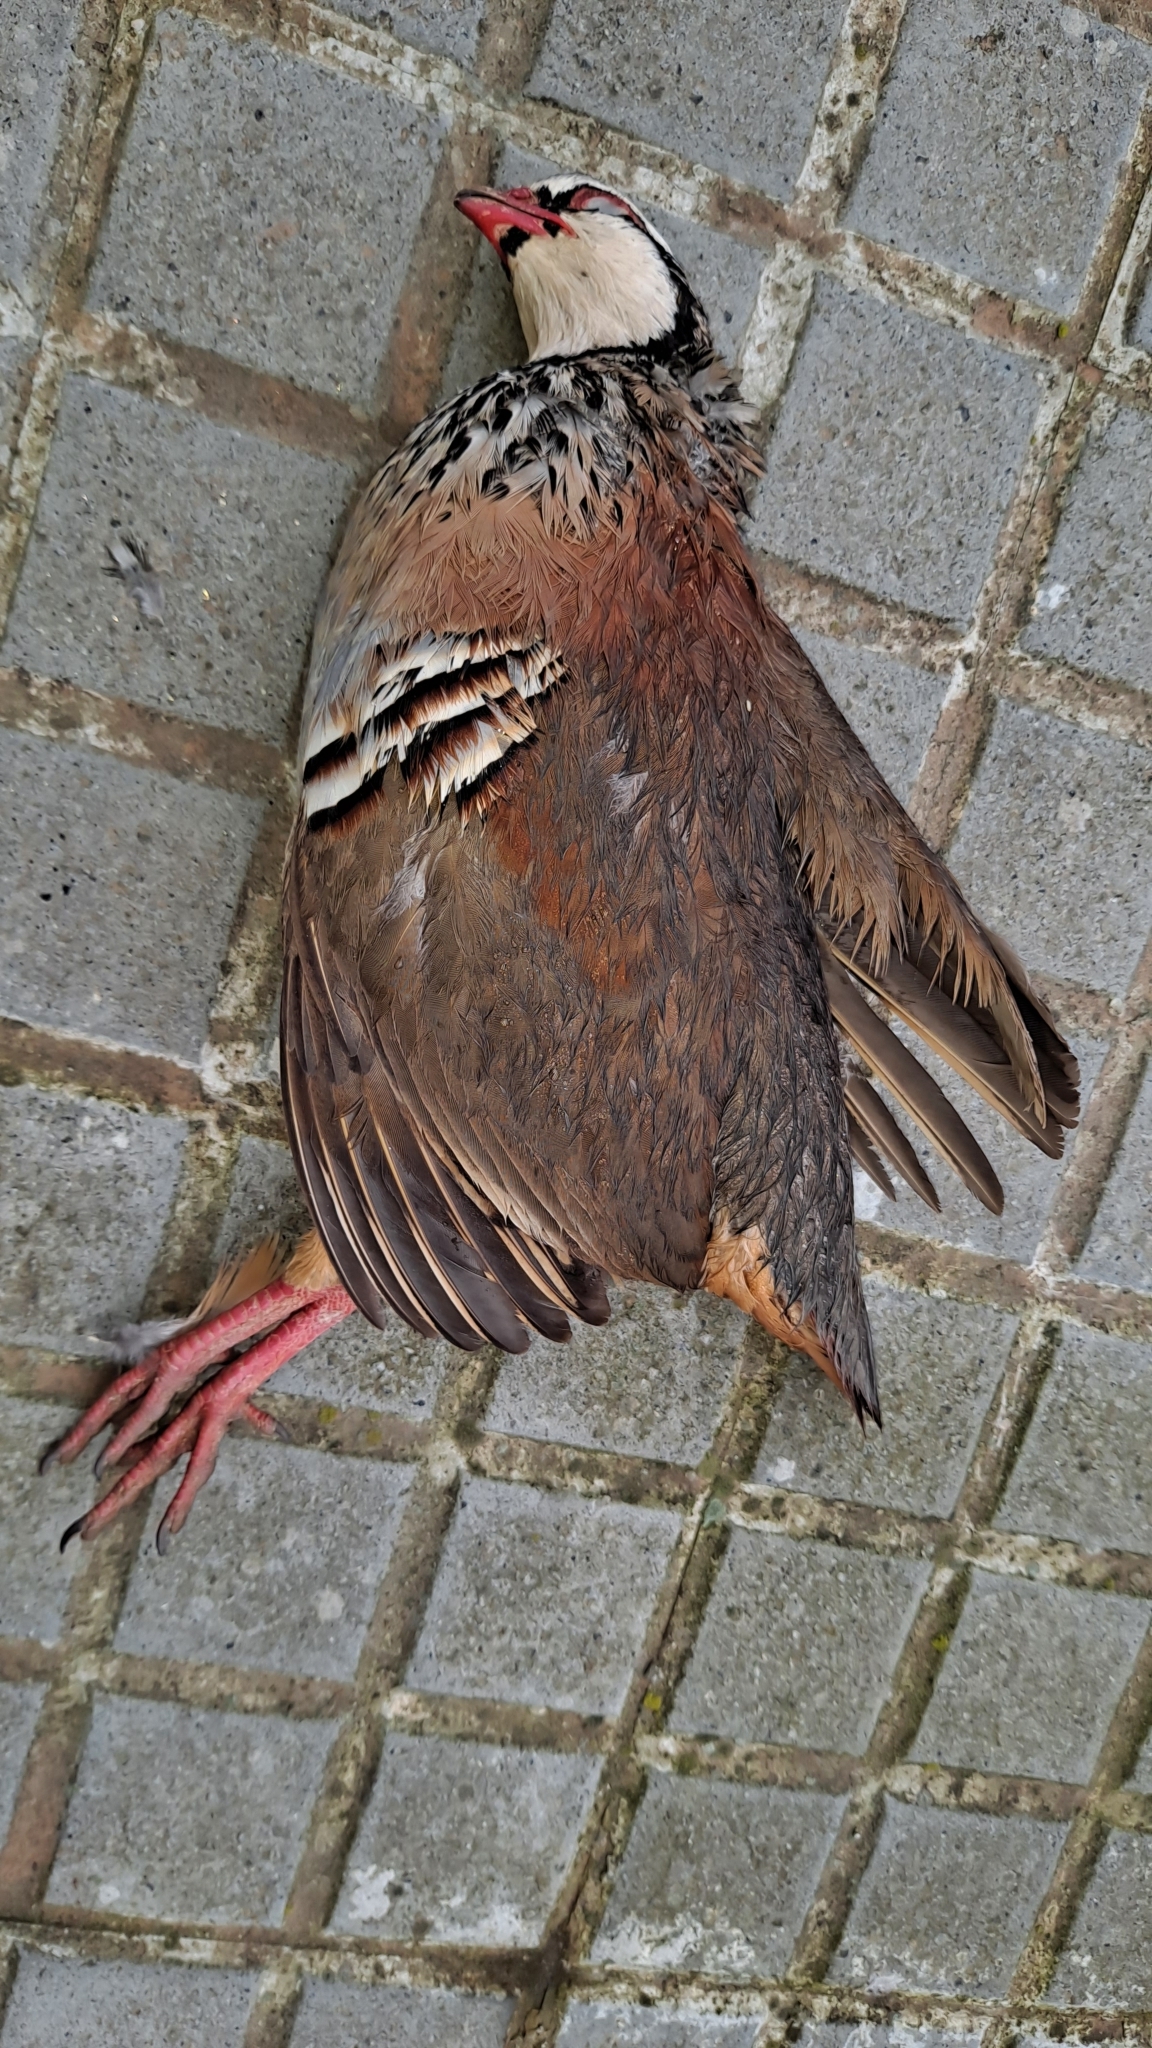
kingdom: Animalia
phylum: Chordata
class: Aves
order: Galliformes
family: Phasianidae
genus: Alectoris
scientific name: Alectoris rufa
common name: Red-legged partridge
